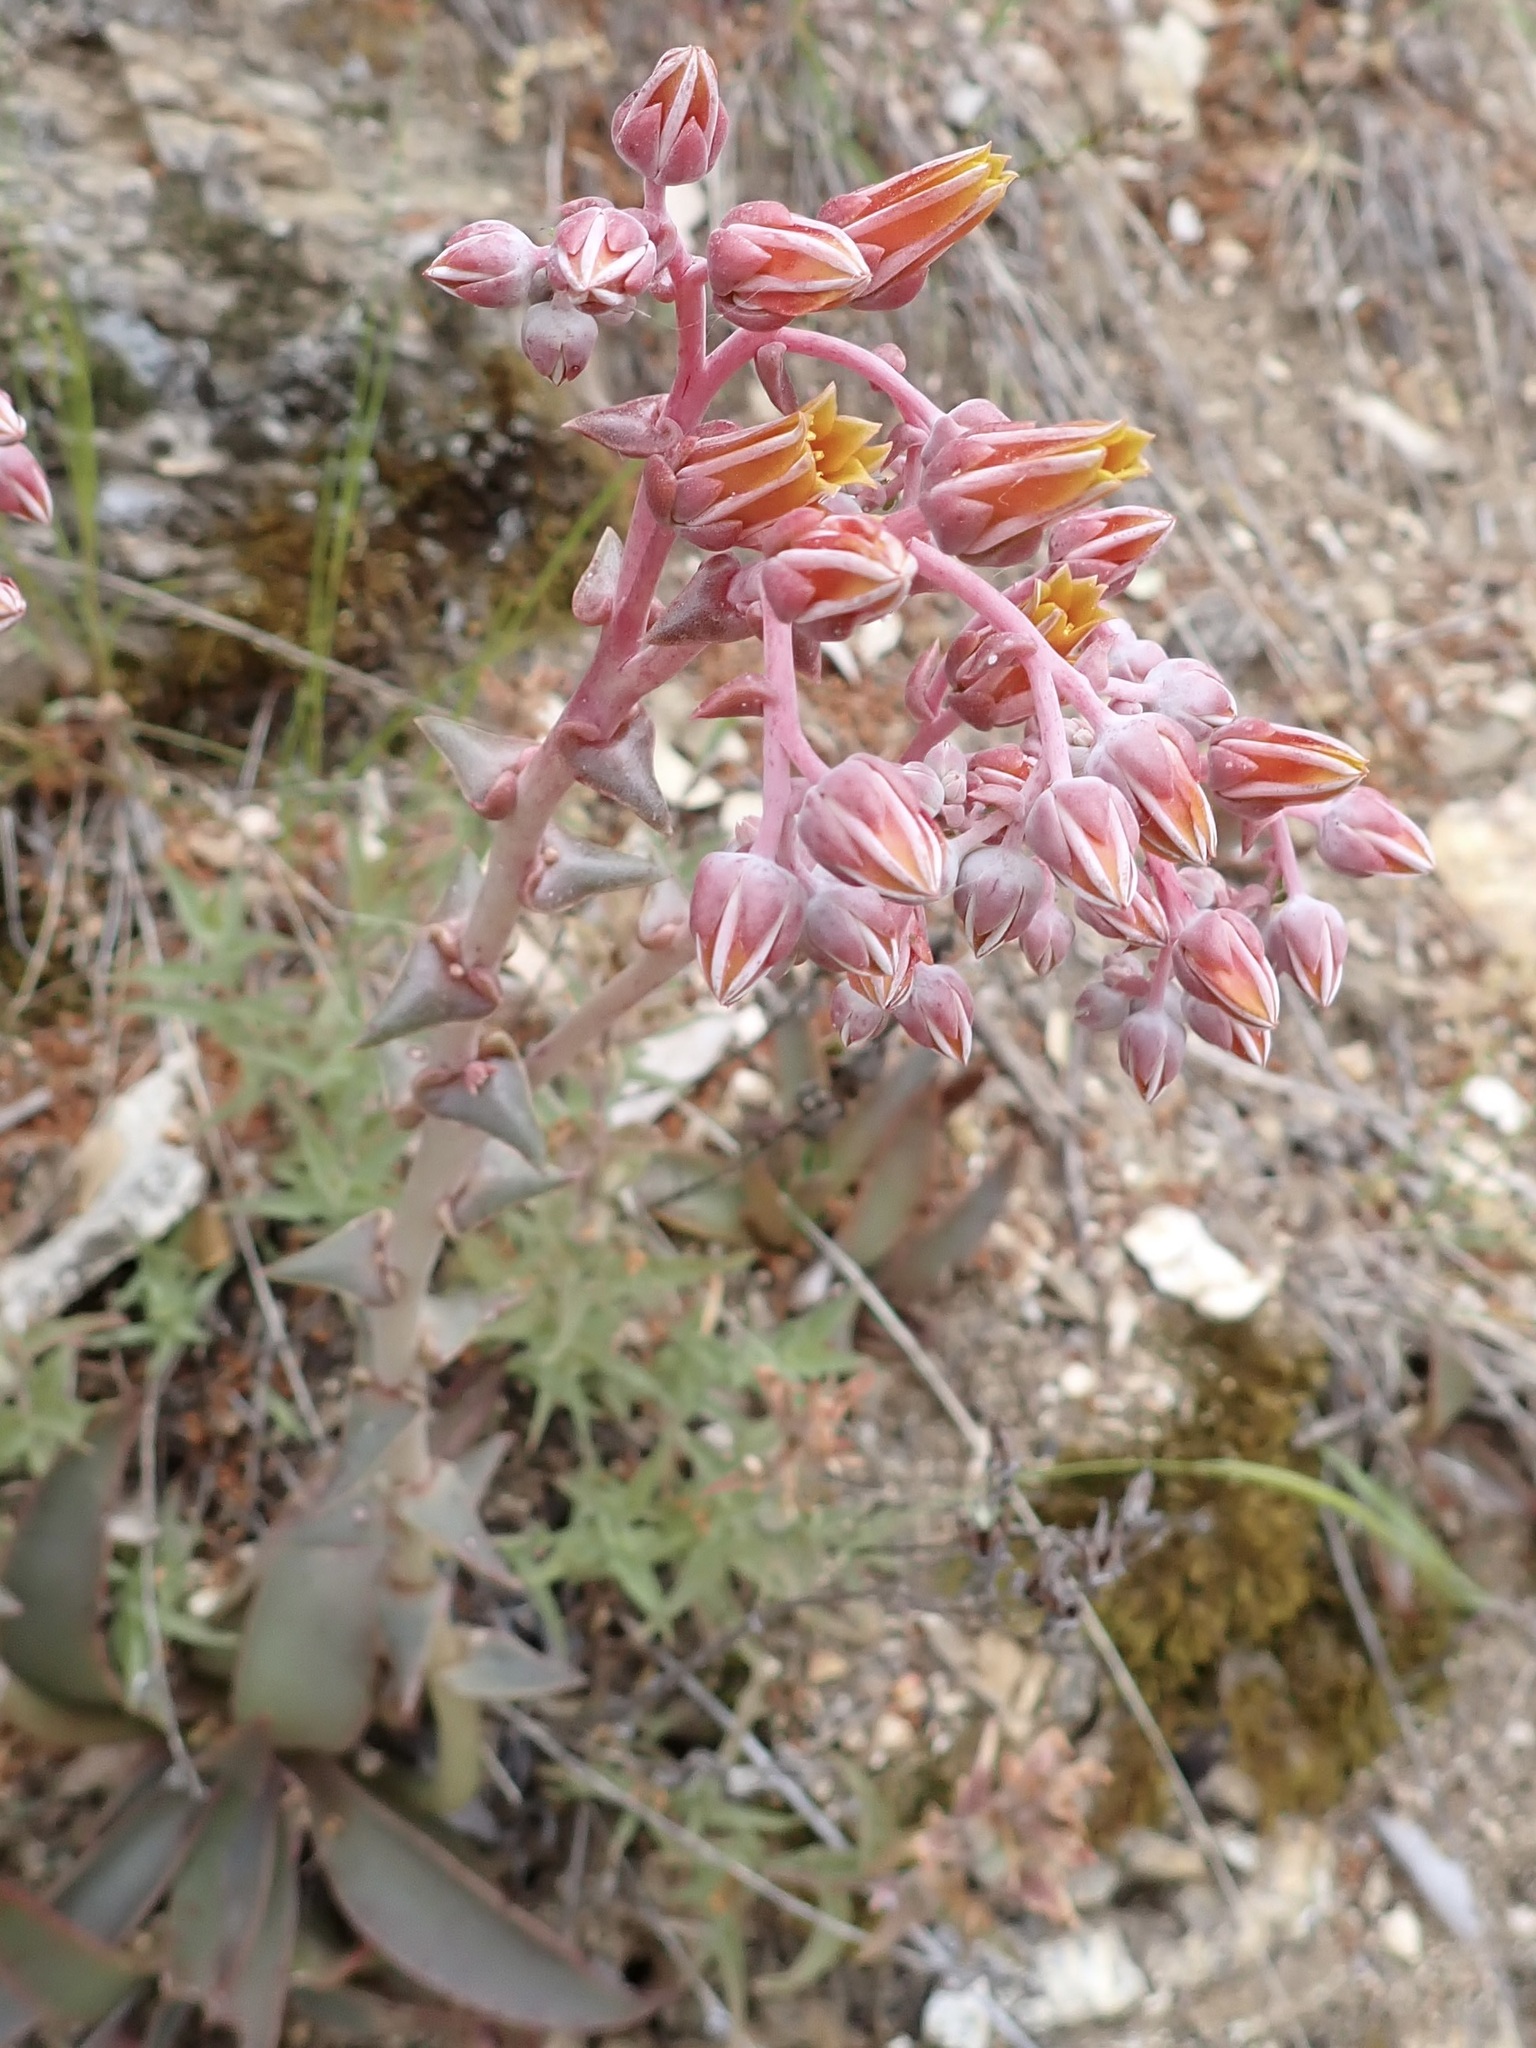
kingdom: Plantae
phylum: Tracheophyta
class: Magnoliopsida
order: Saxifragales
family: Crassulaceae
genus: Dudleya
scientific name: Dudleya lanceolata
